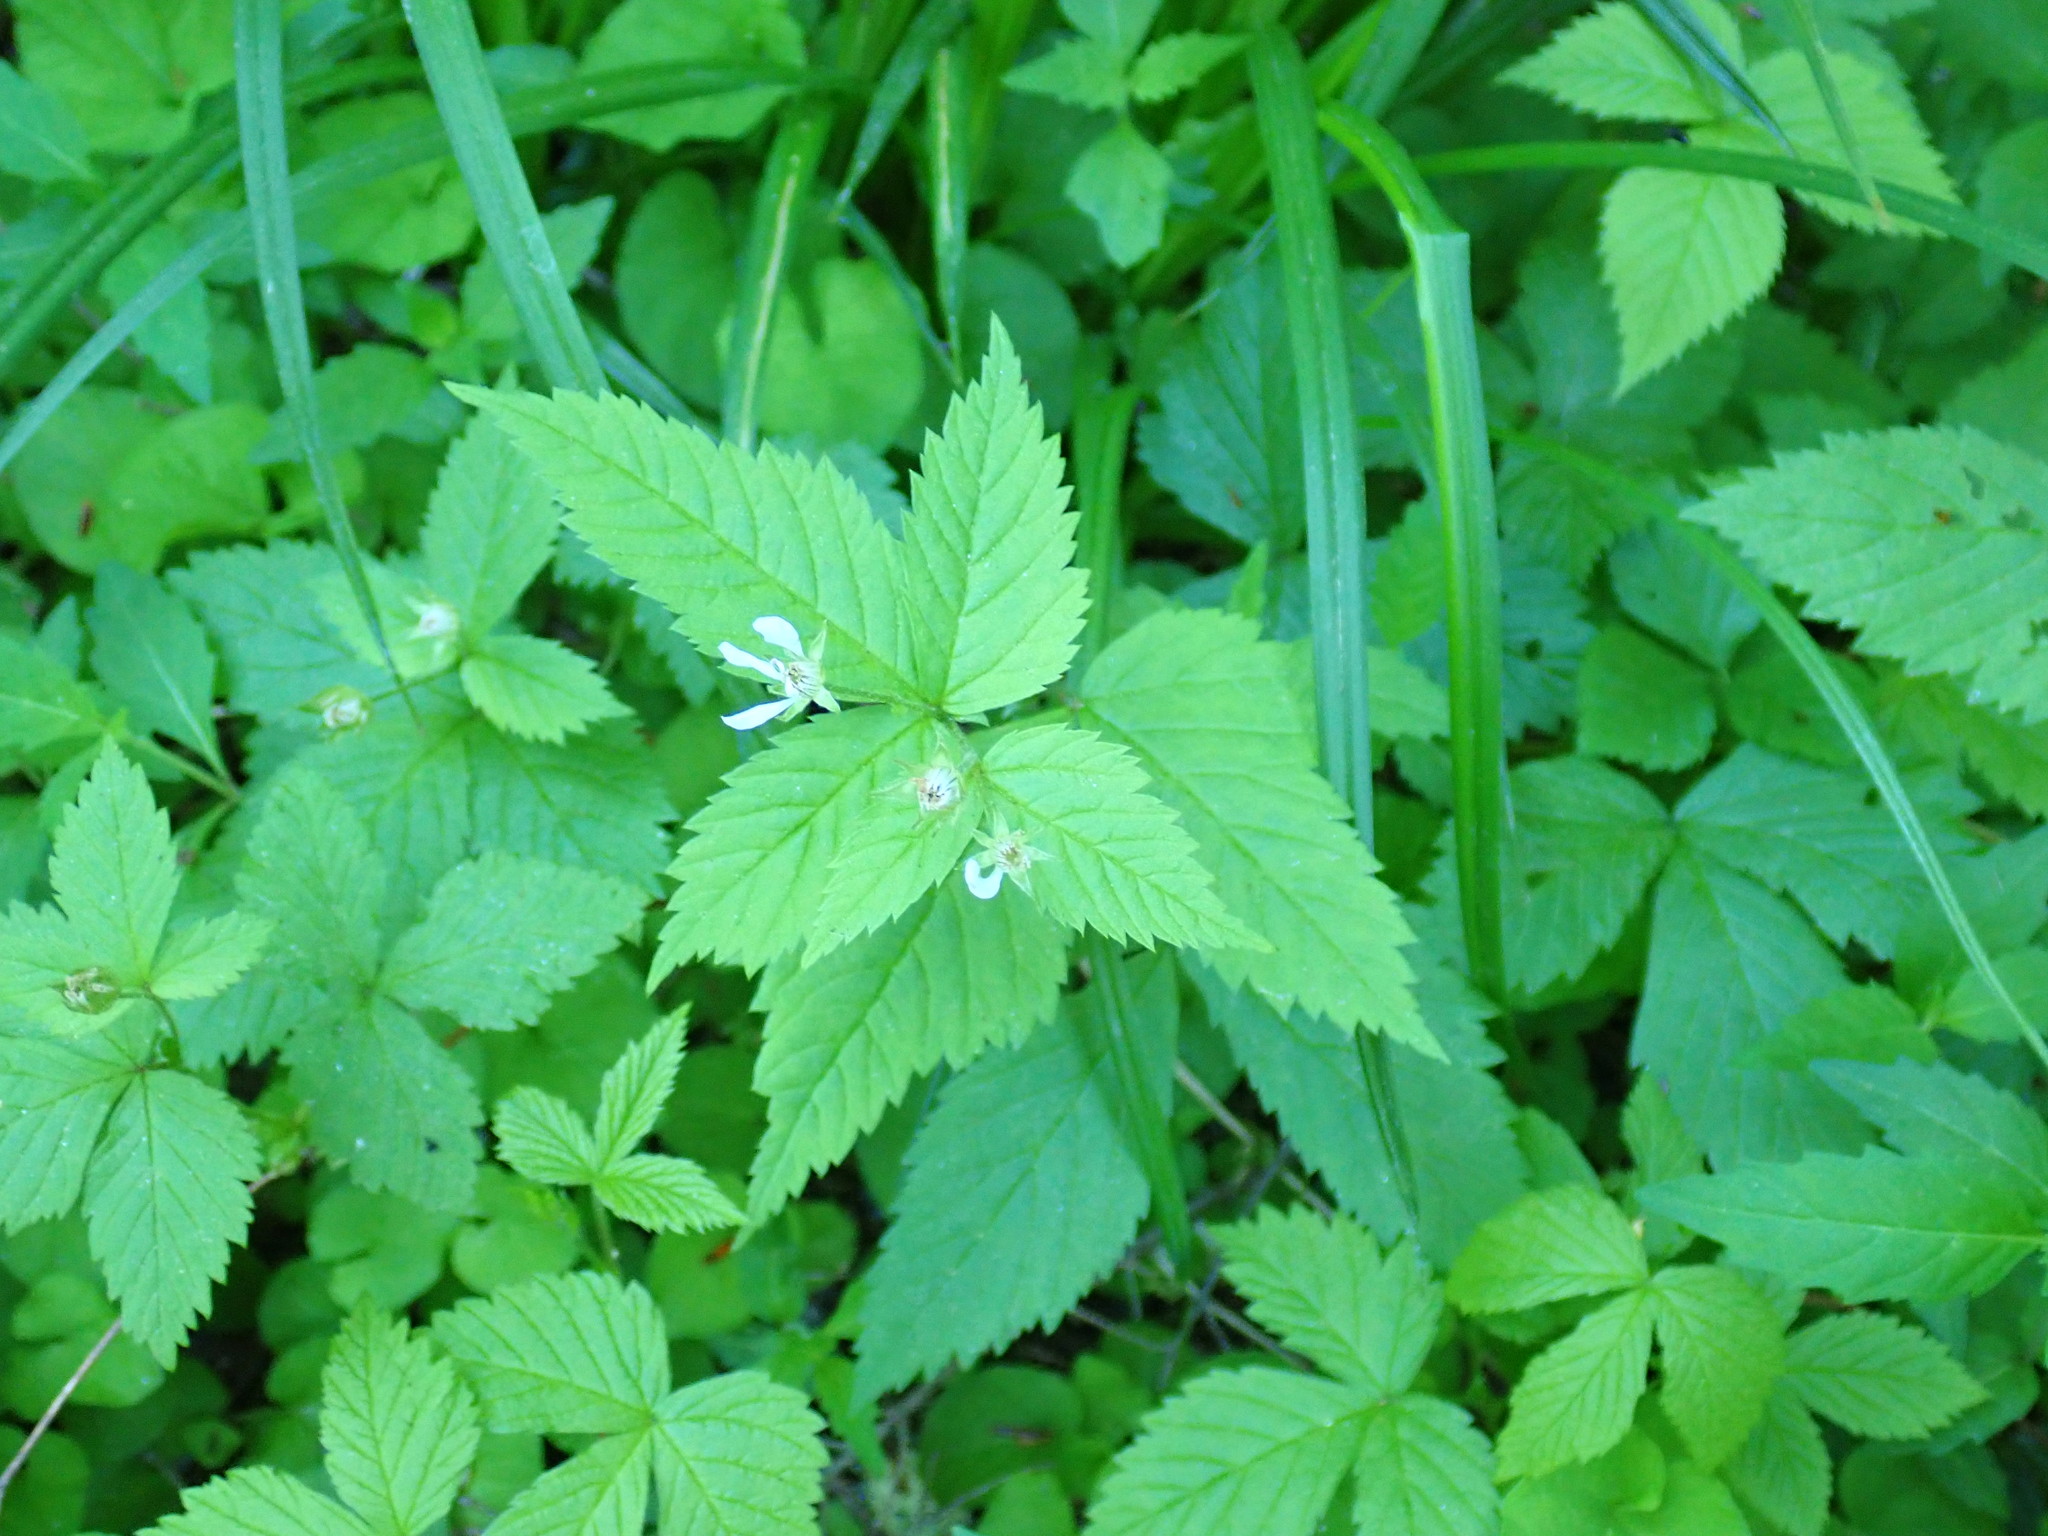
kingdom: Plantae
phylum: Tracheophyta
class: Magnoliopsida
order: Rosales
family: Rosaceae
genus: Rubus
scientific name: Rubus pubescens
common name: Dwarf raspberry
